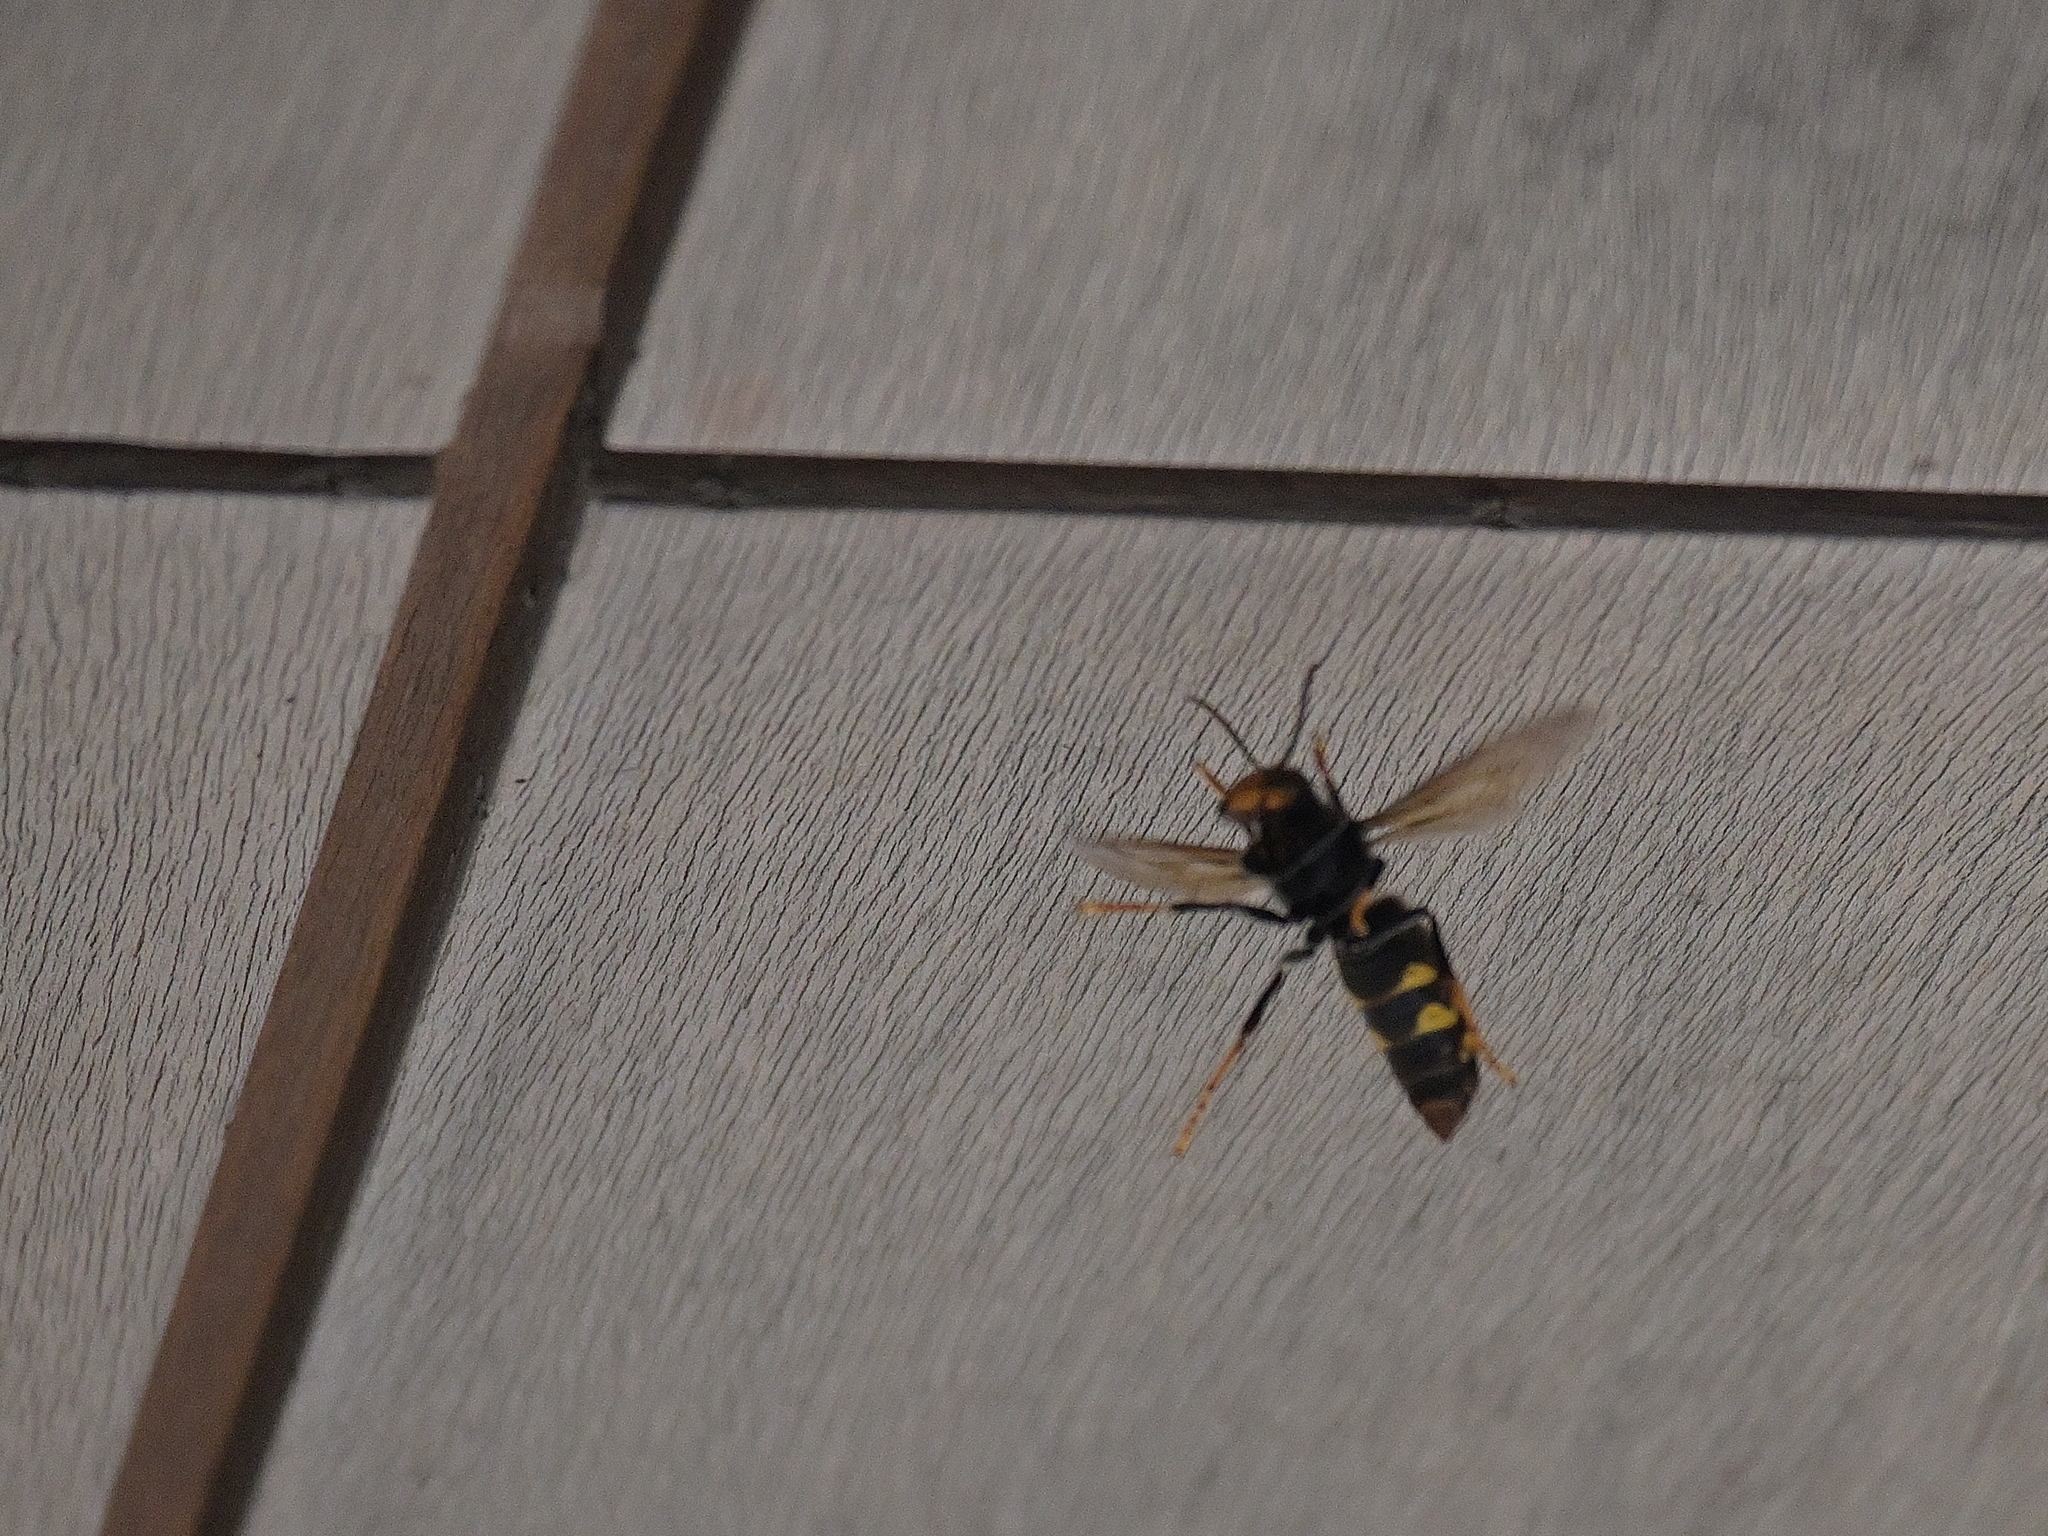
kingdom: Animalia
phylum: Arthropoda
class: Insecta
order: Hymenoptera
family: Vespidae
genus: Vespa
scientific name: Vespa velutina
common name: Asian hornet
